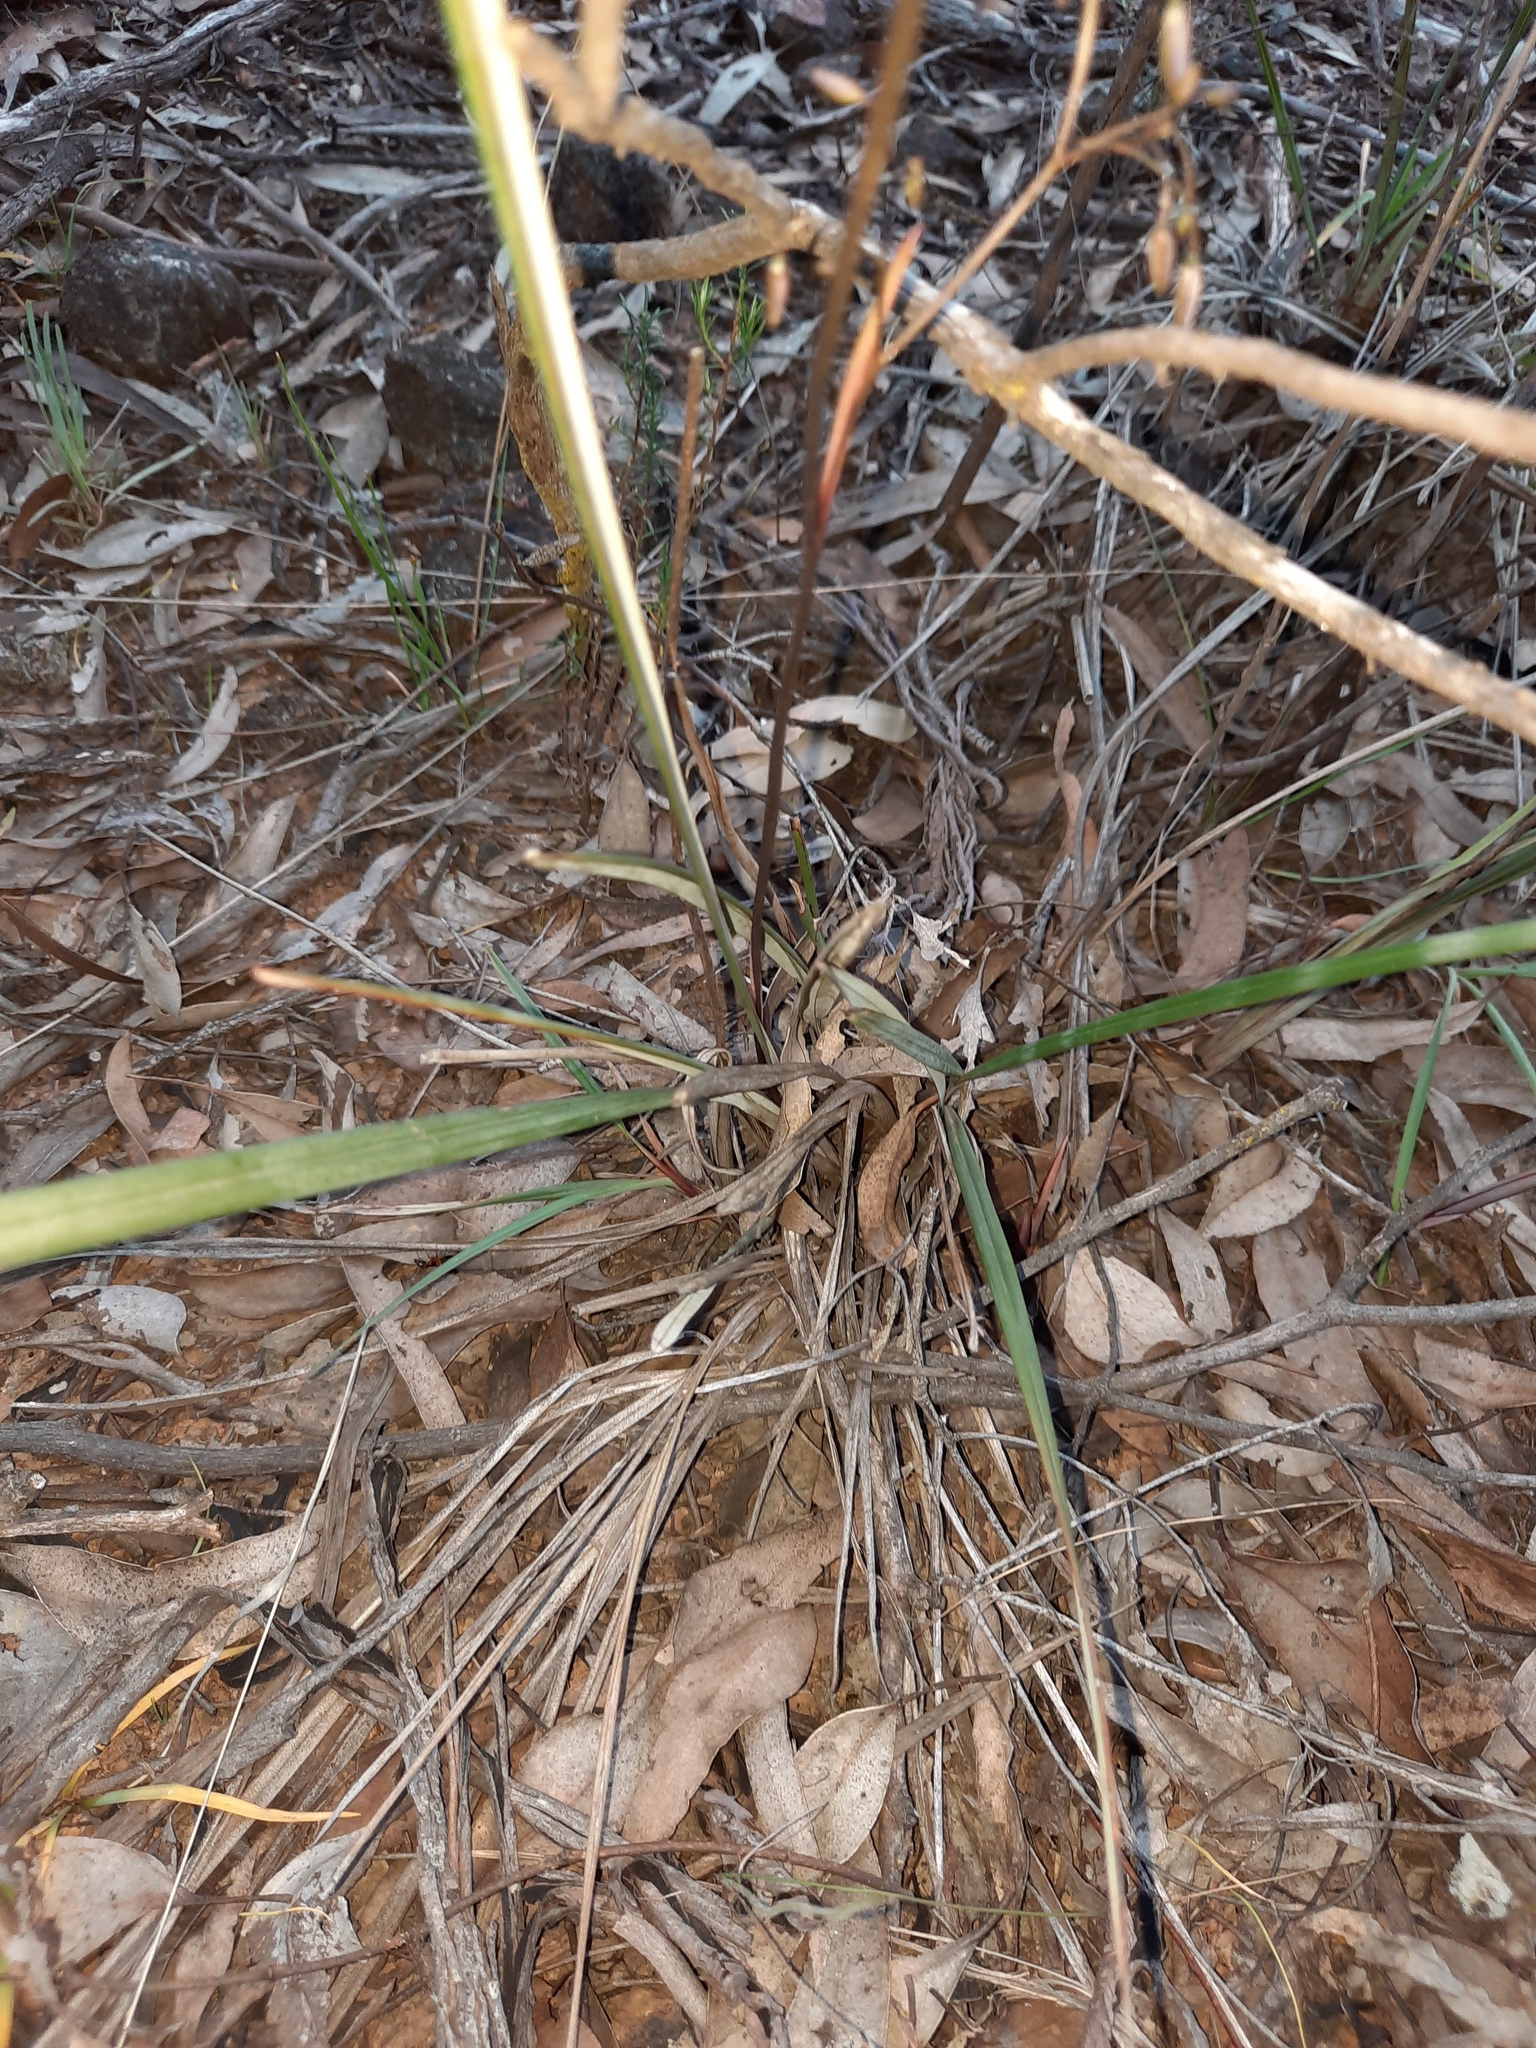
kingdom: Plantae
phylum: Tracheophyta
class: Liliopsida
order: Asparagales
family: Asphodelaceae
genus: Dianella
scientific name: Dianella revoluta
